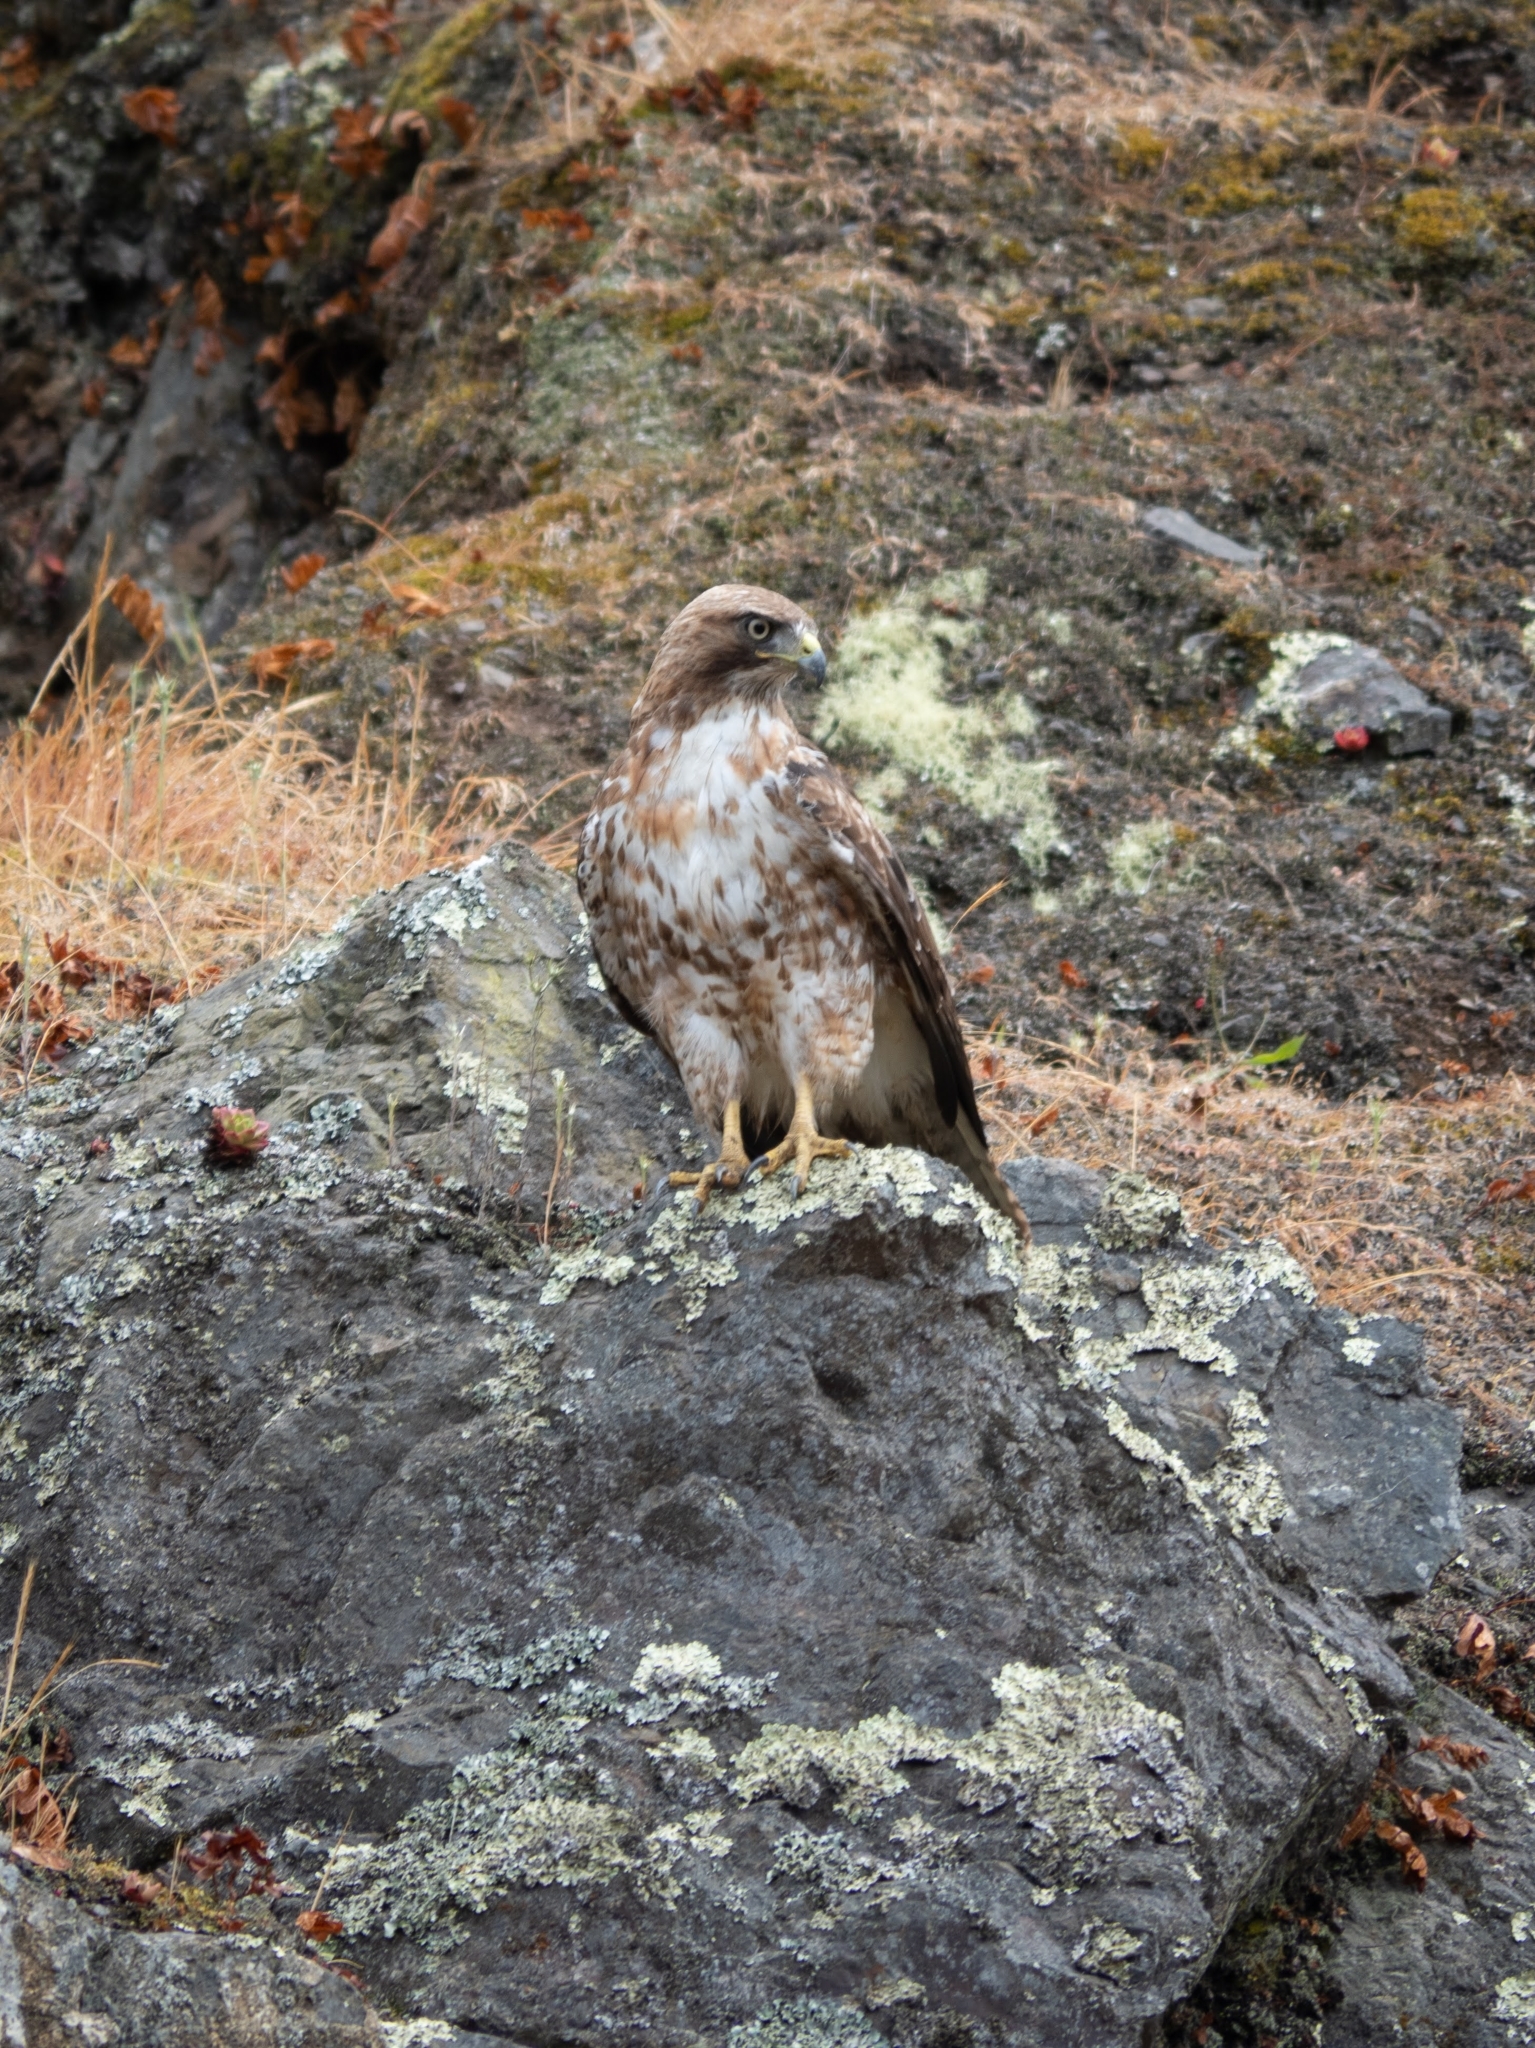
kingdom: Animalia
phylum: Chordata
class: Aves
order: Accipitriformes
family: Accipitridae
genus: Buteo
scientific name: Buteo jamaicensis
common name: Red-tailed hawk
